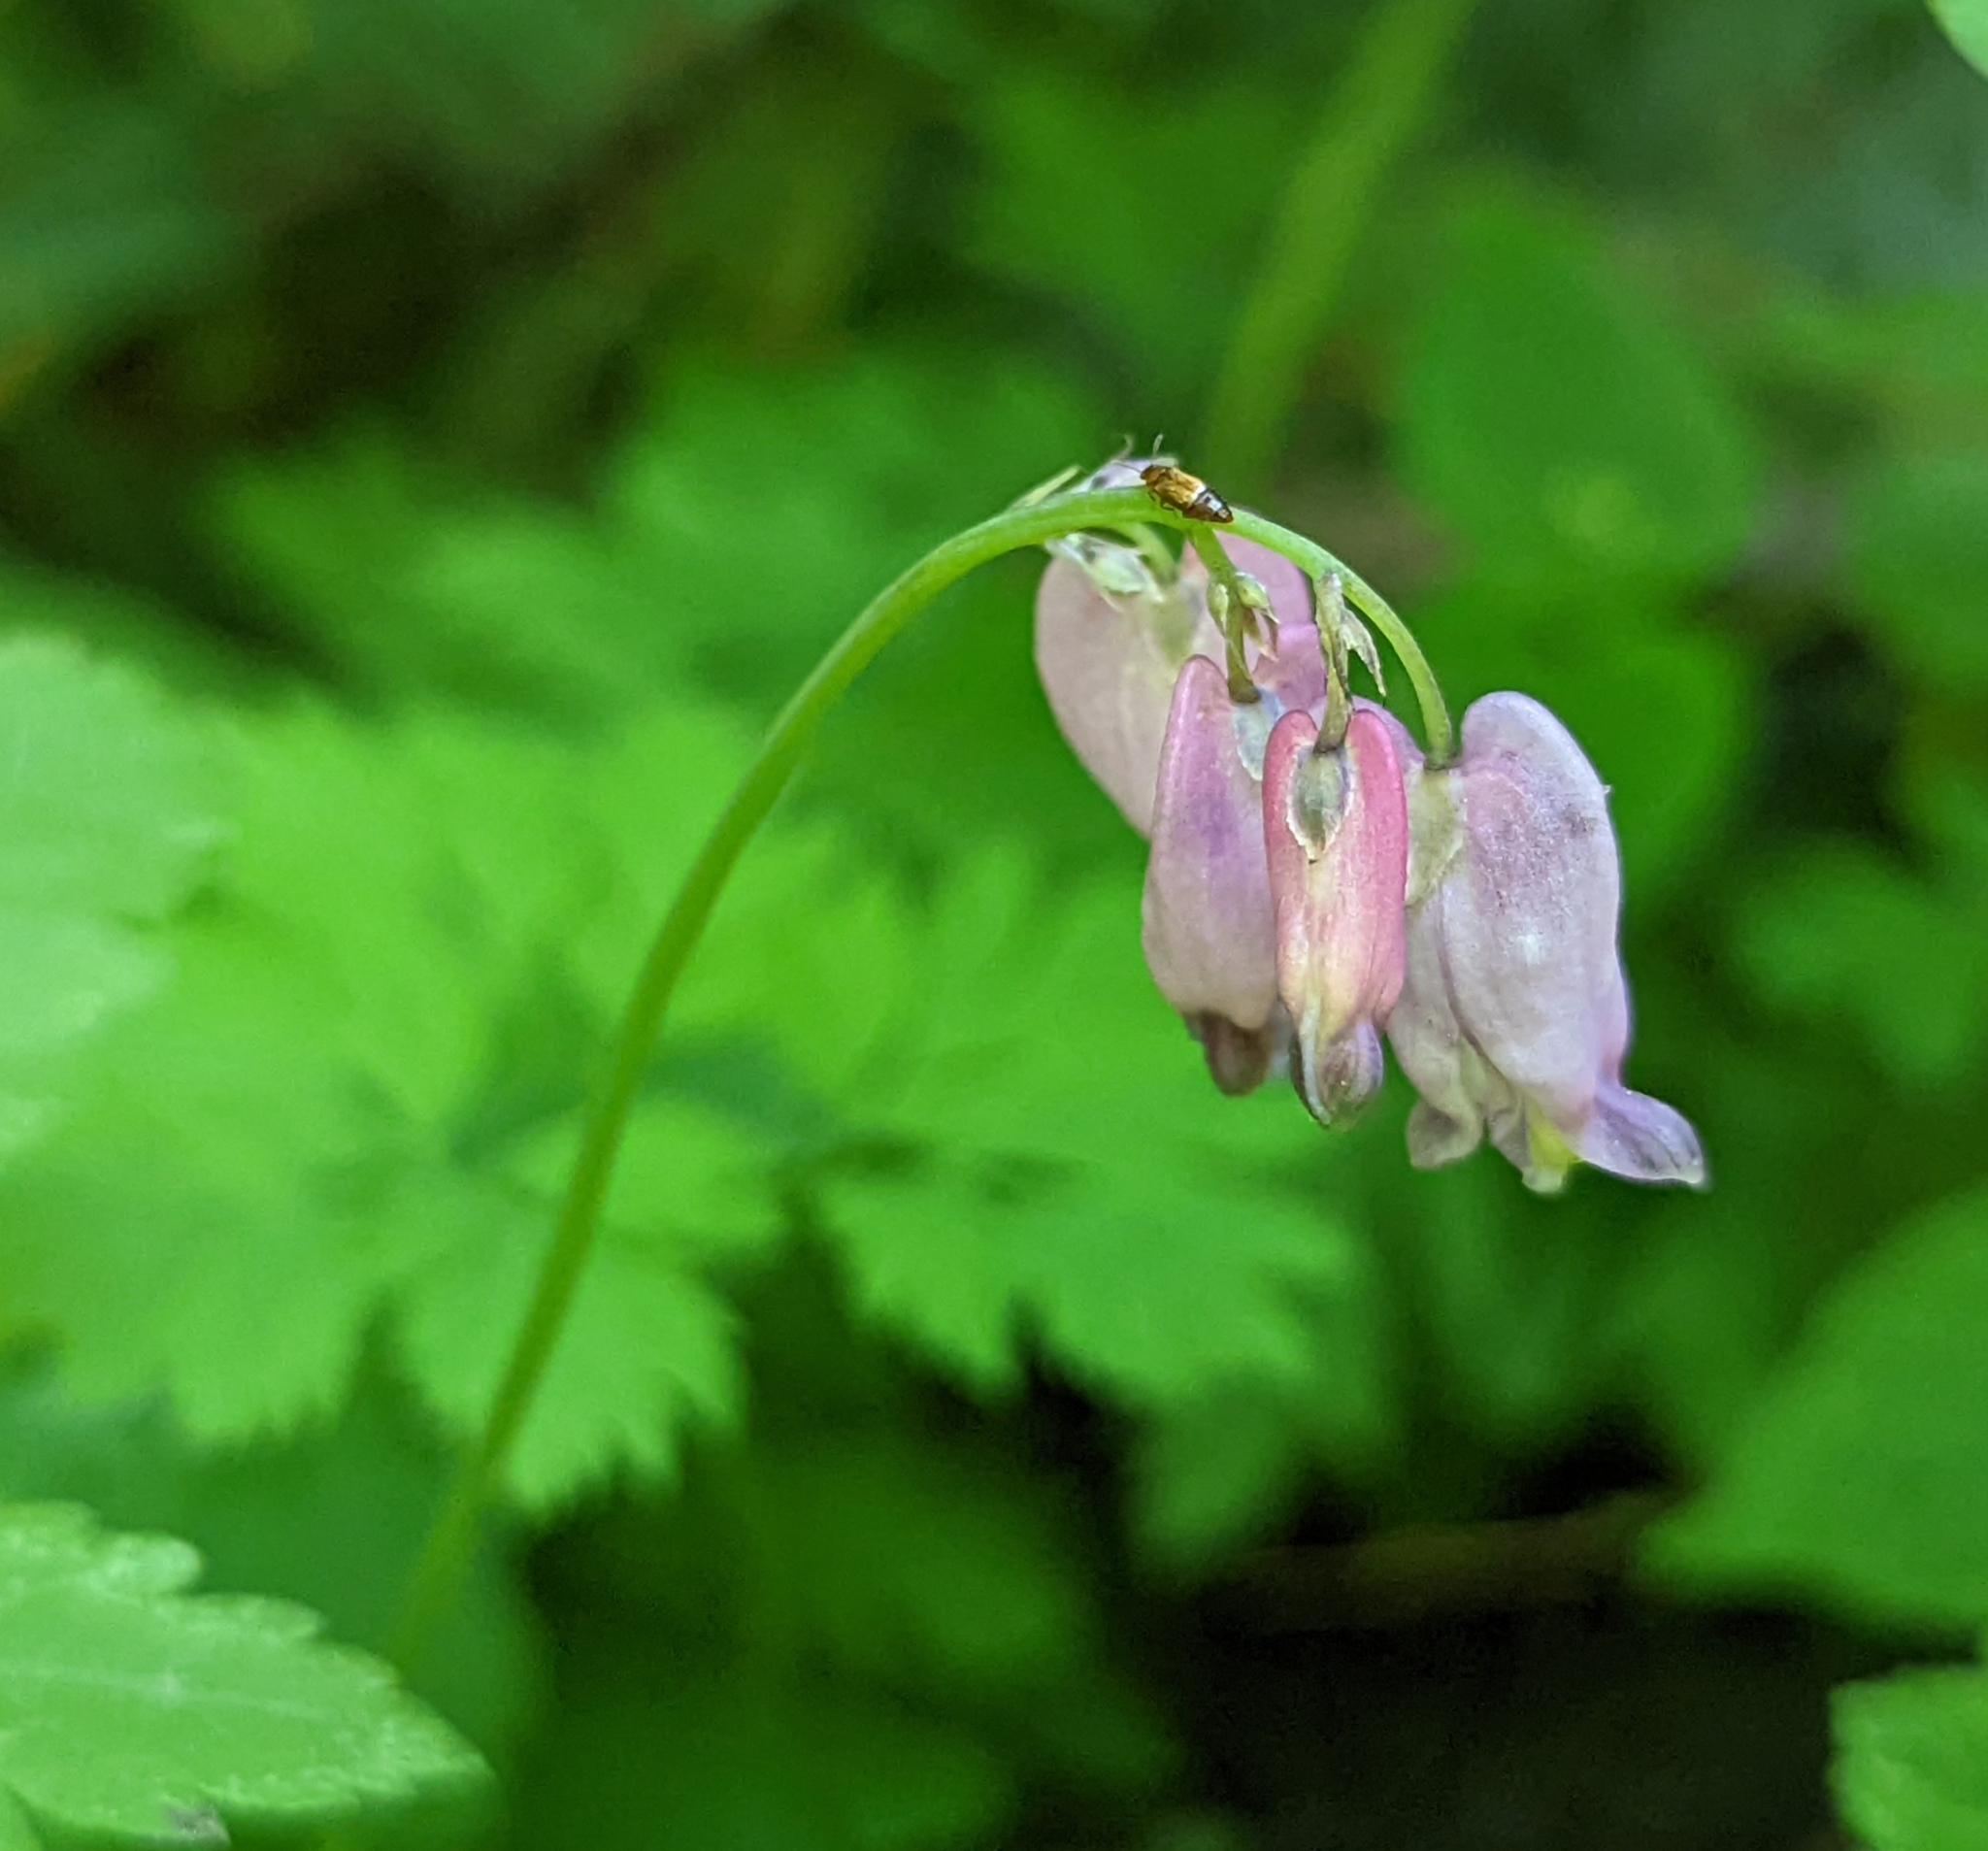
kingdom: Plantae
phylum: Tracheophyta
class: Magnoliopsida
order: Ranunculales
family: Papaveraceae
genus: Dicentra
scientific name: Dicentra formosa
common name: Bleeding-heart
